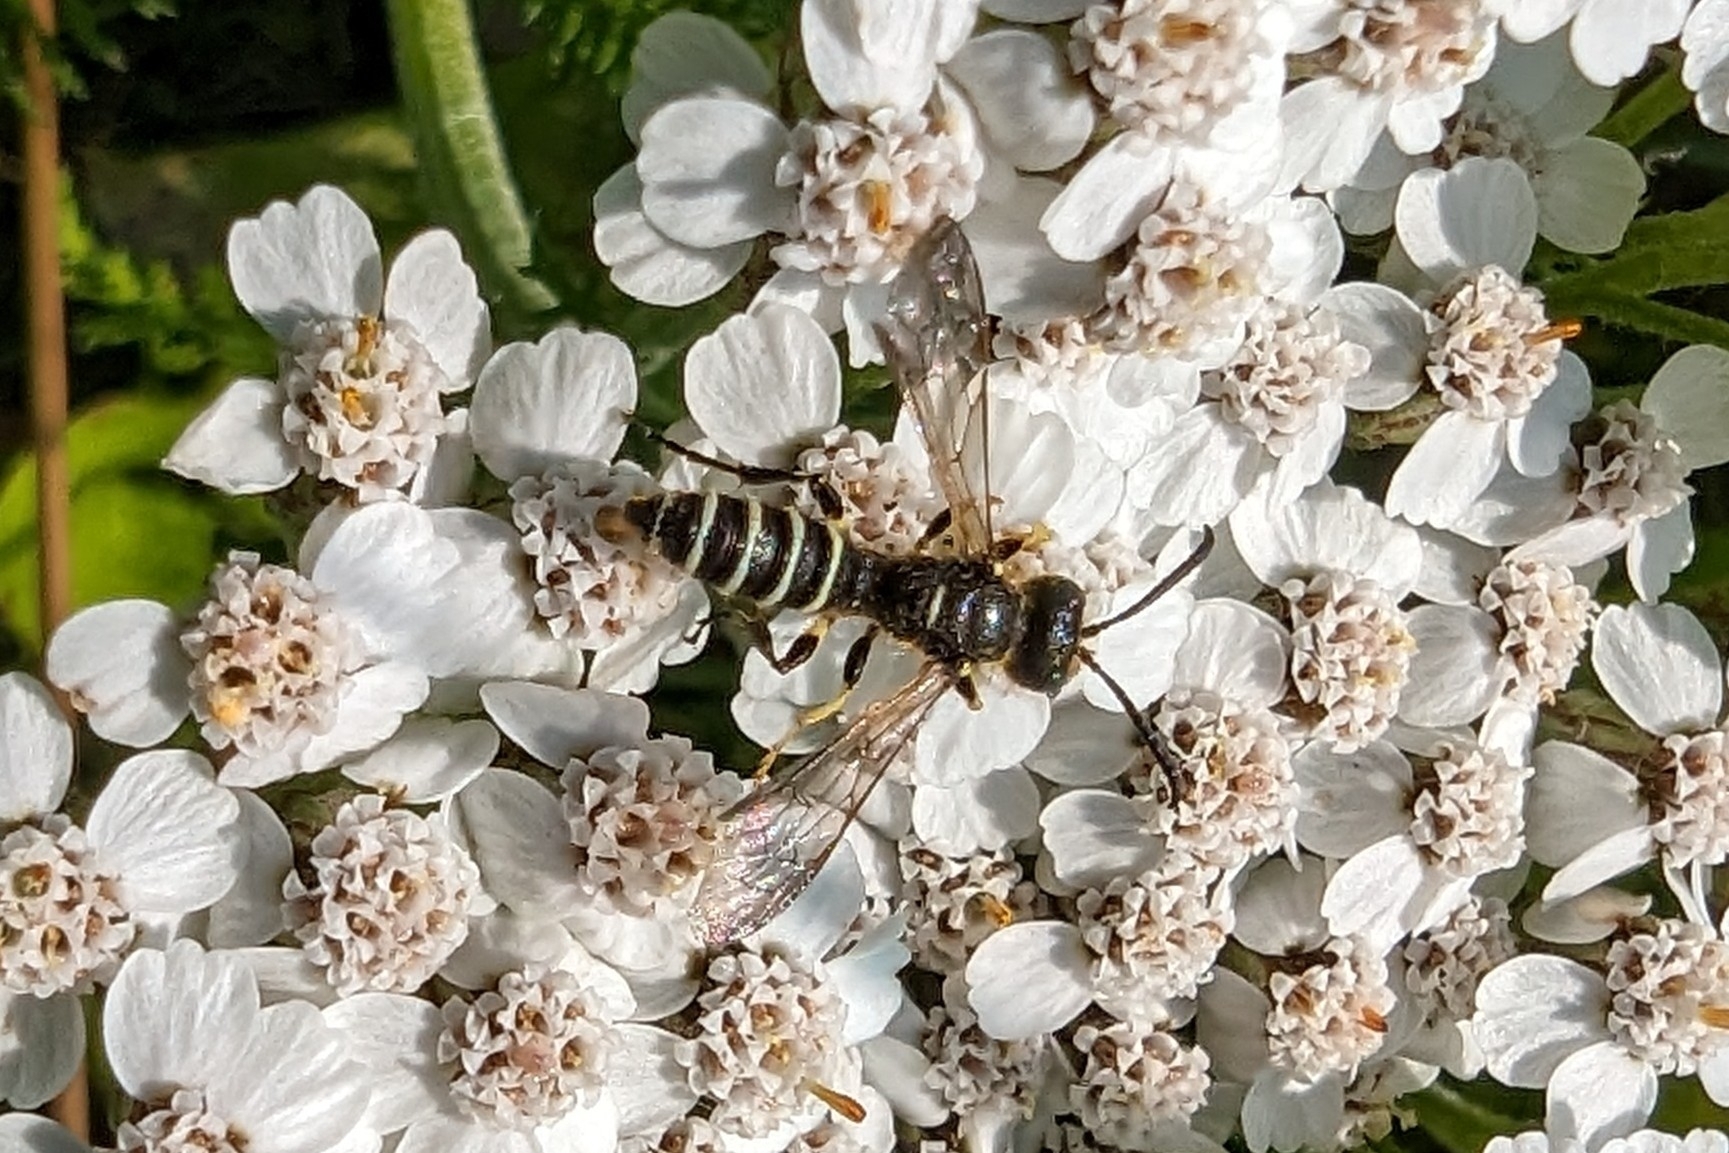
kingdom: Animalia
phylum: Arthropoda
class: Insecta
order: Hymenoptera
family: Crabronidae
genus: Cerceris
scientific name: Cerceris nigrescens
